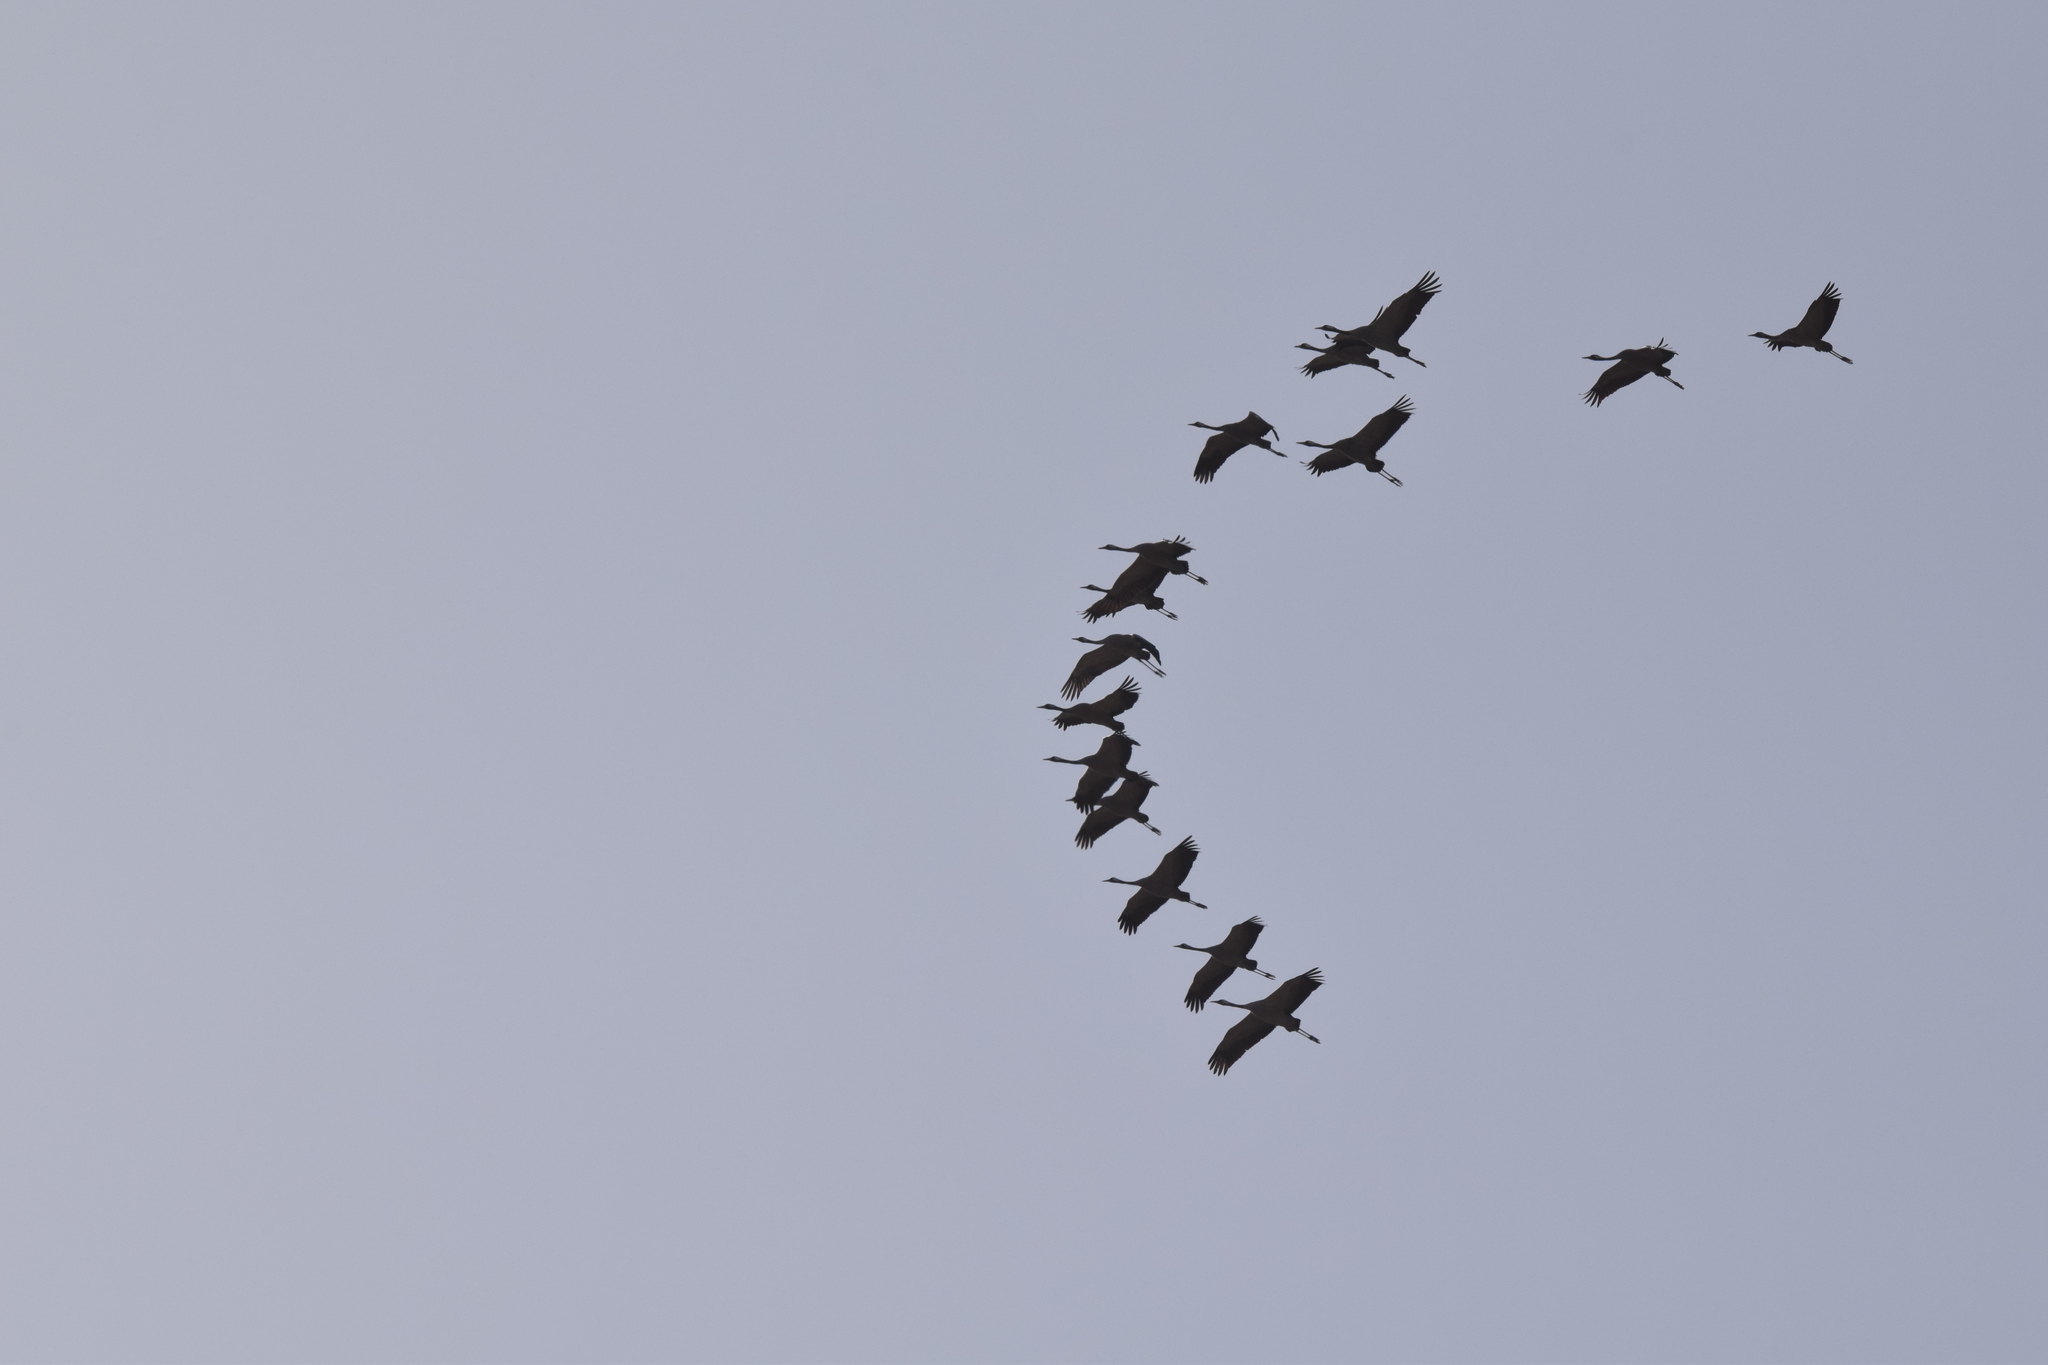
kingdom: Animalia
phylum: Chordata
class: Aves
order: Gruiformes
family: Gruidae
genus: Grus
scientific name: Grus grus
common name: Common crane
